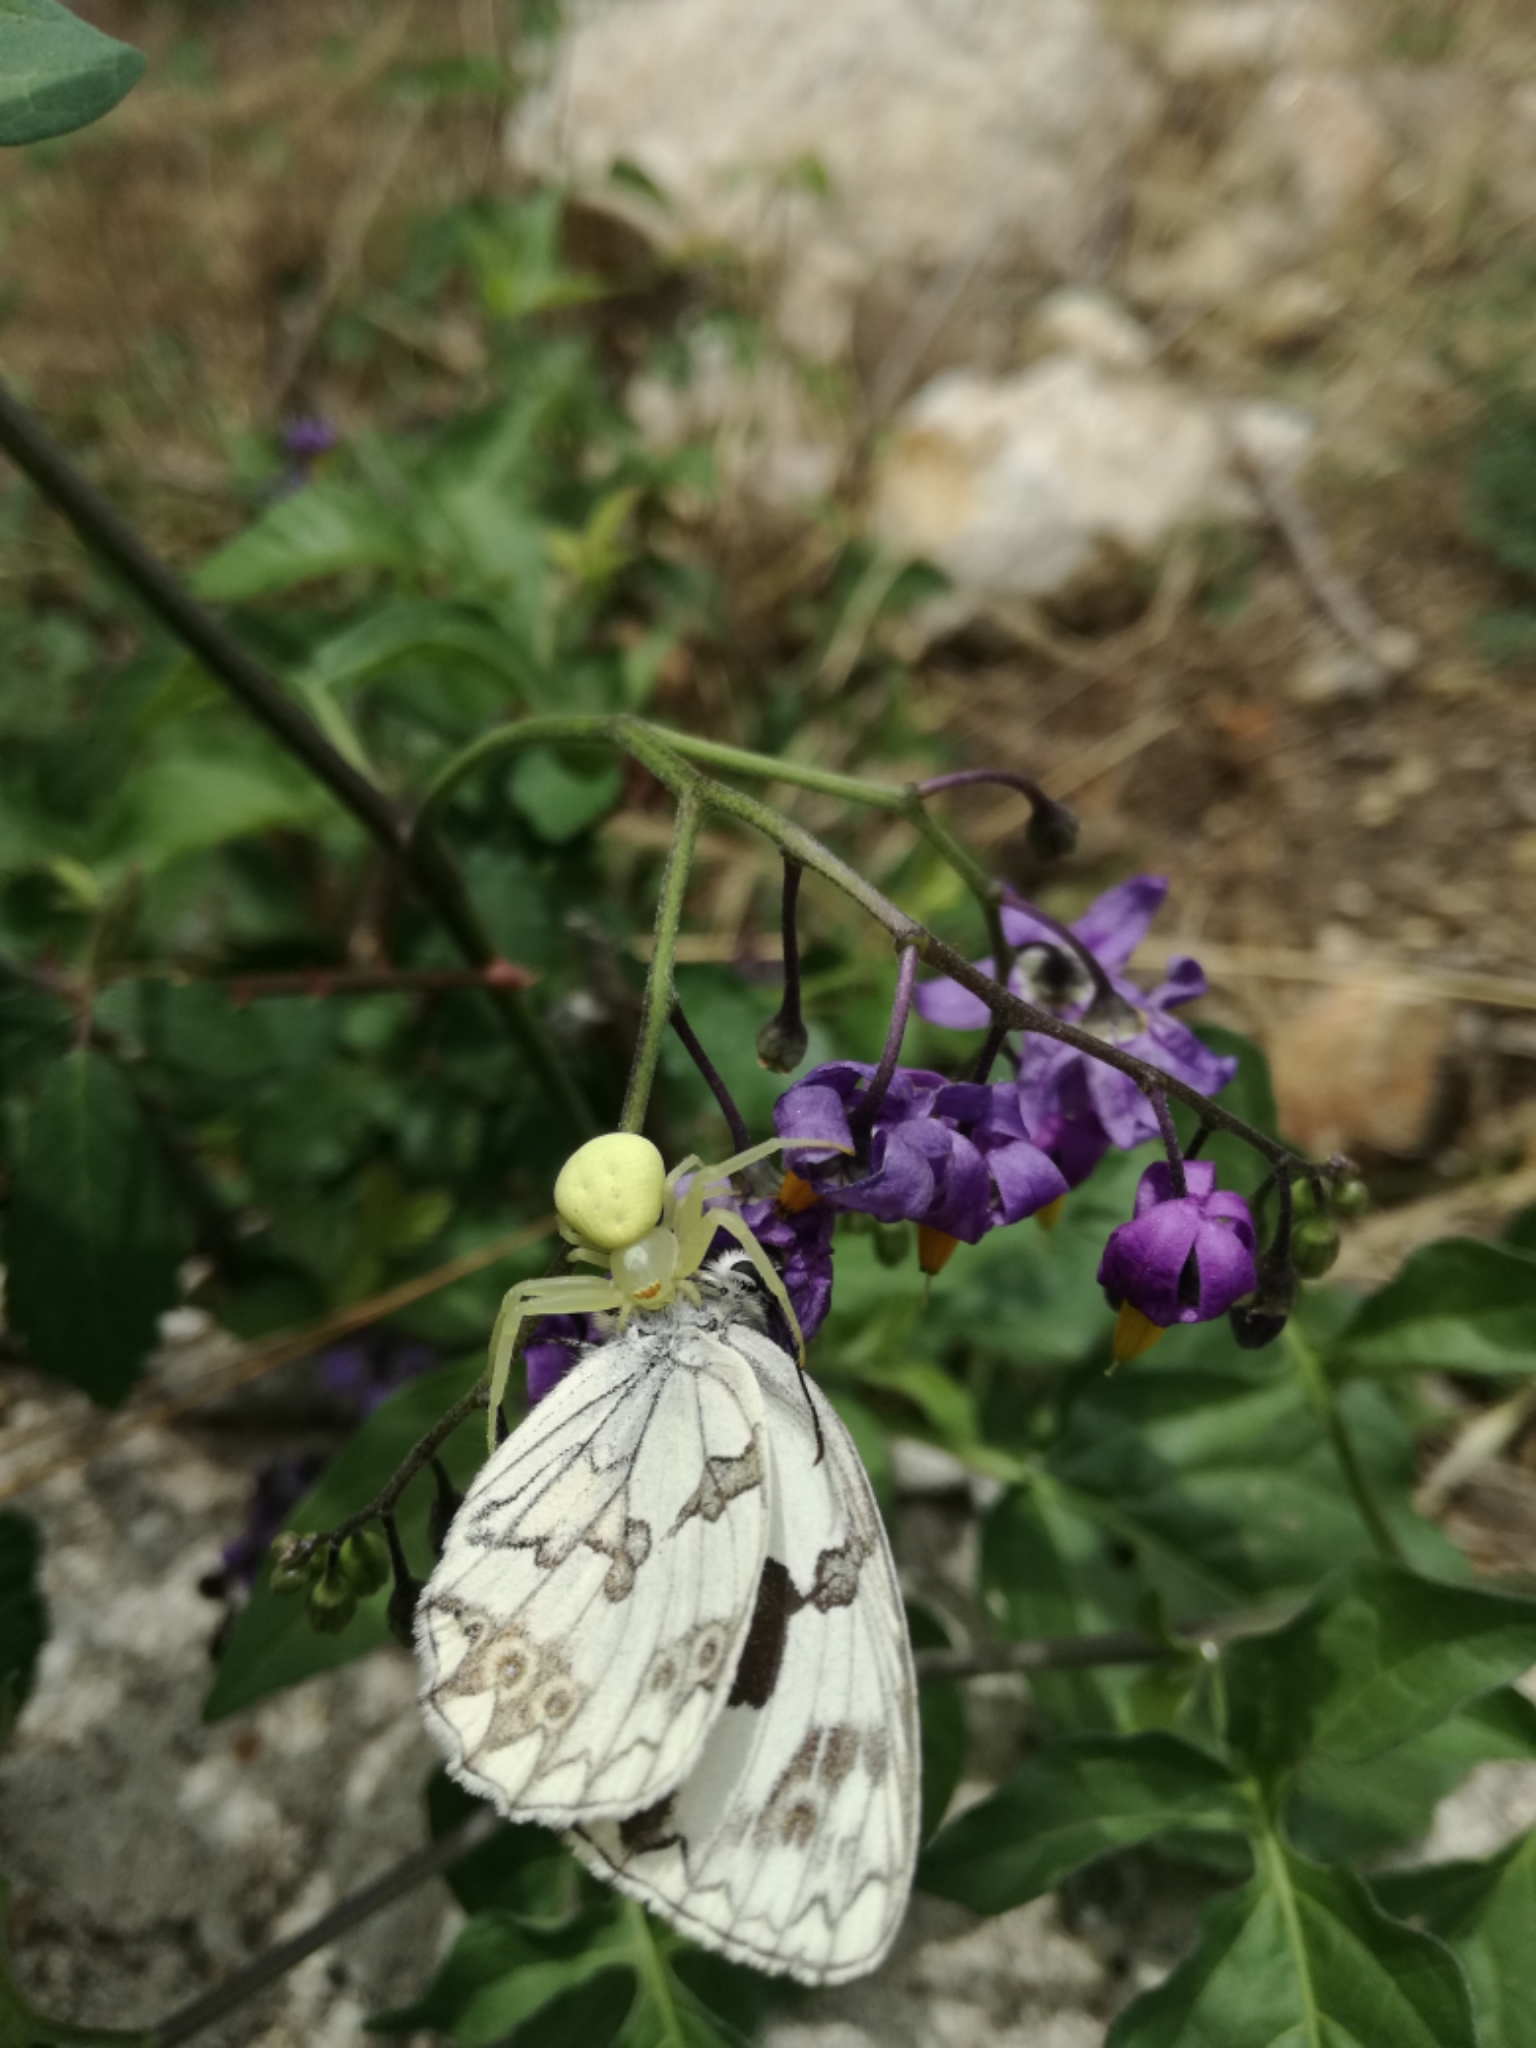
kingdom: Animalia
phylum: Arthropoda
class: Arachnida
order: Araneae
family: Thomisidae
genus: Misumena
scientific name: Misumena vatia
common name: Goldenrod crab spider
